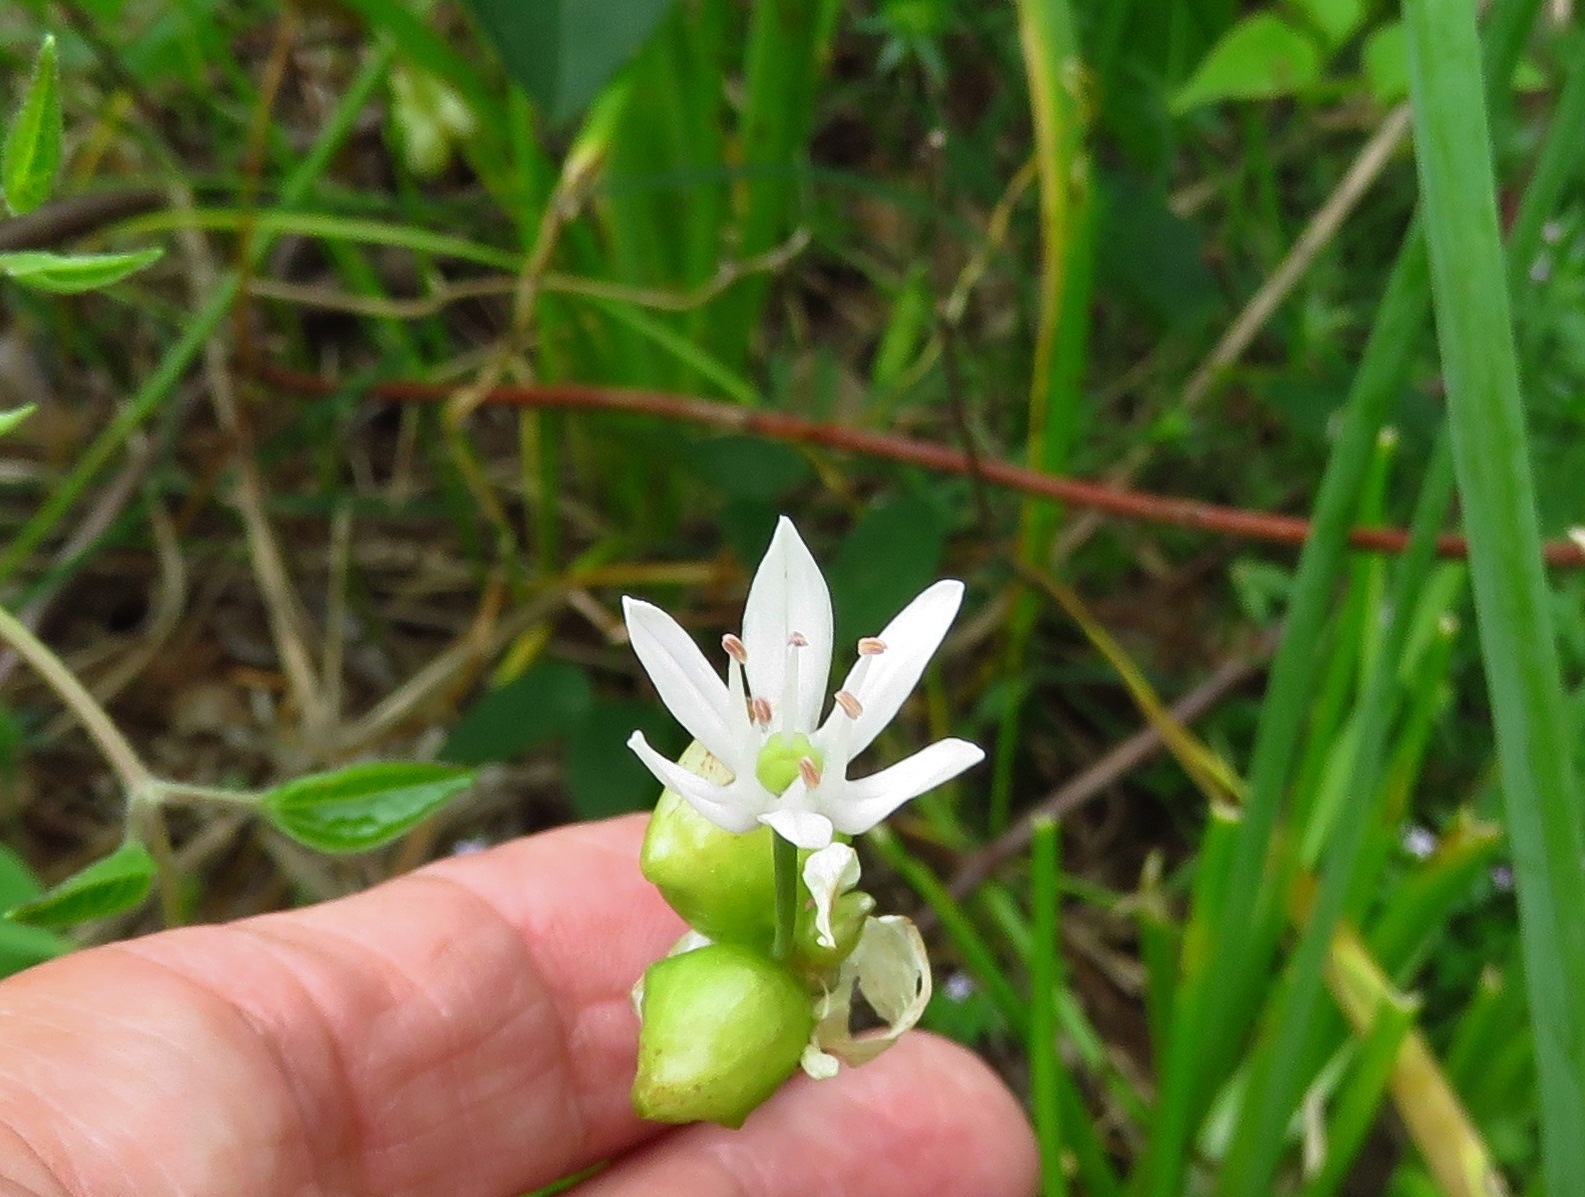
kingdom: Plantae
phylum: Tracheophyta
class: Liliopsida
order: Asparagales
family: Amaryllidaceae
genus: Allium
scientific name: Allium canadense
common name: Meadow garlic
